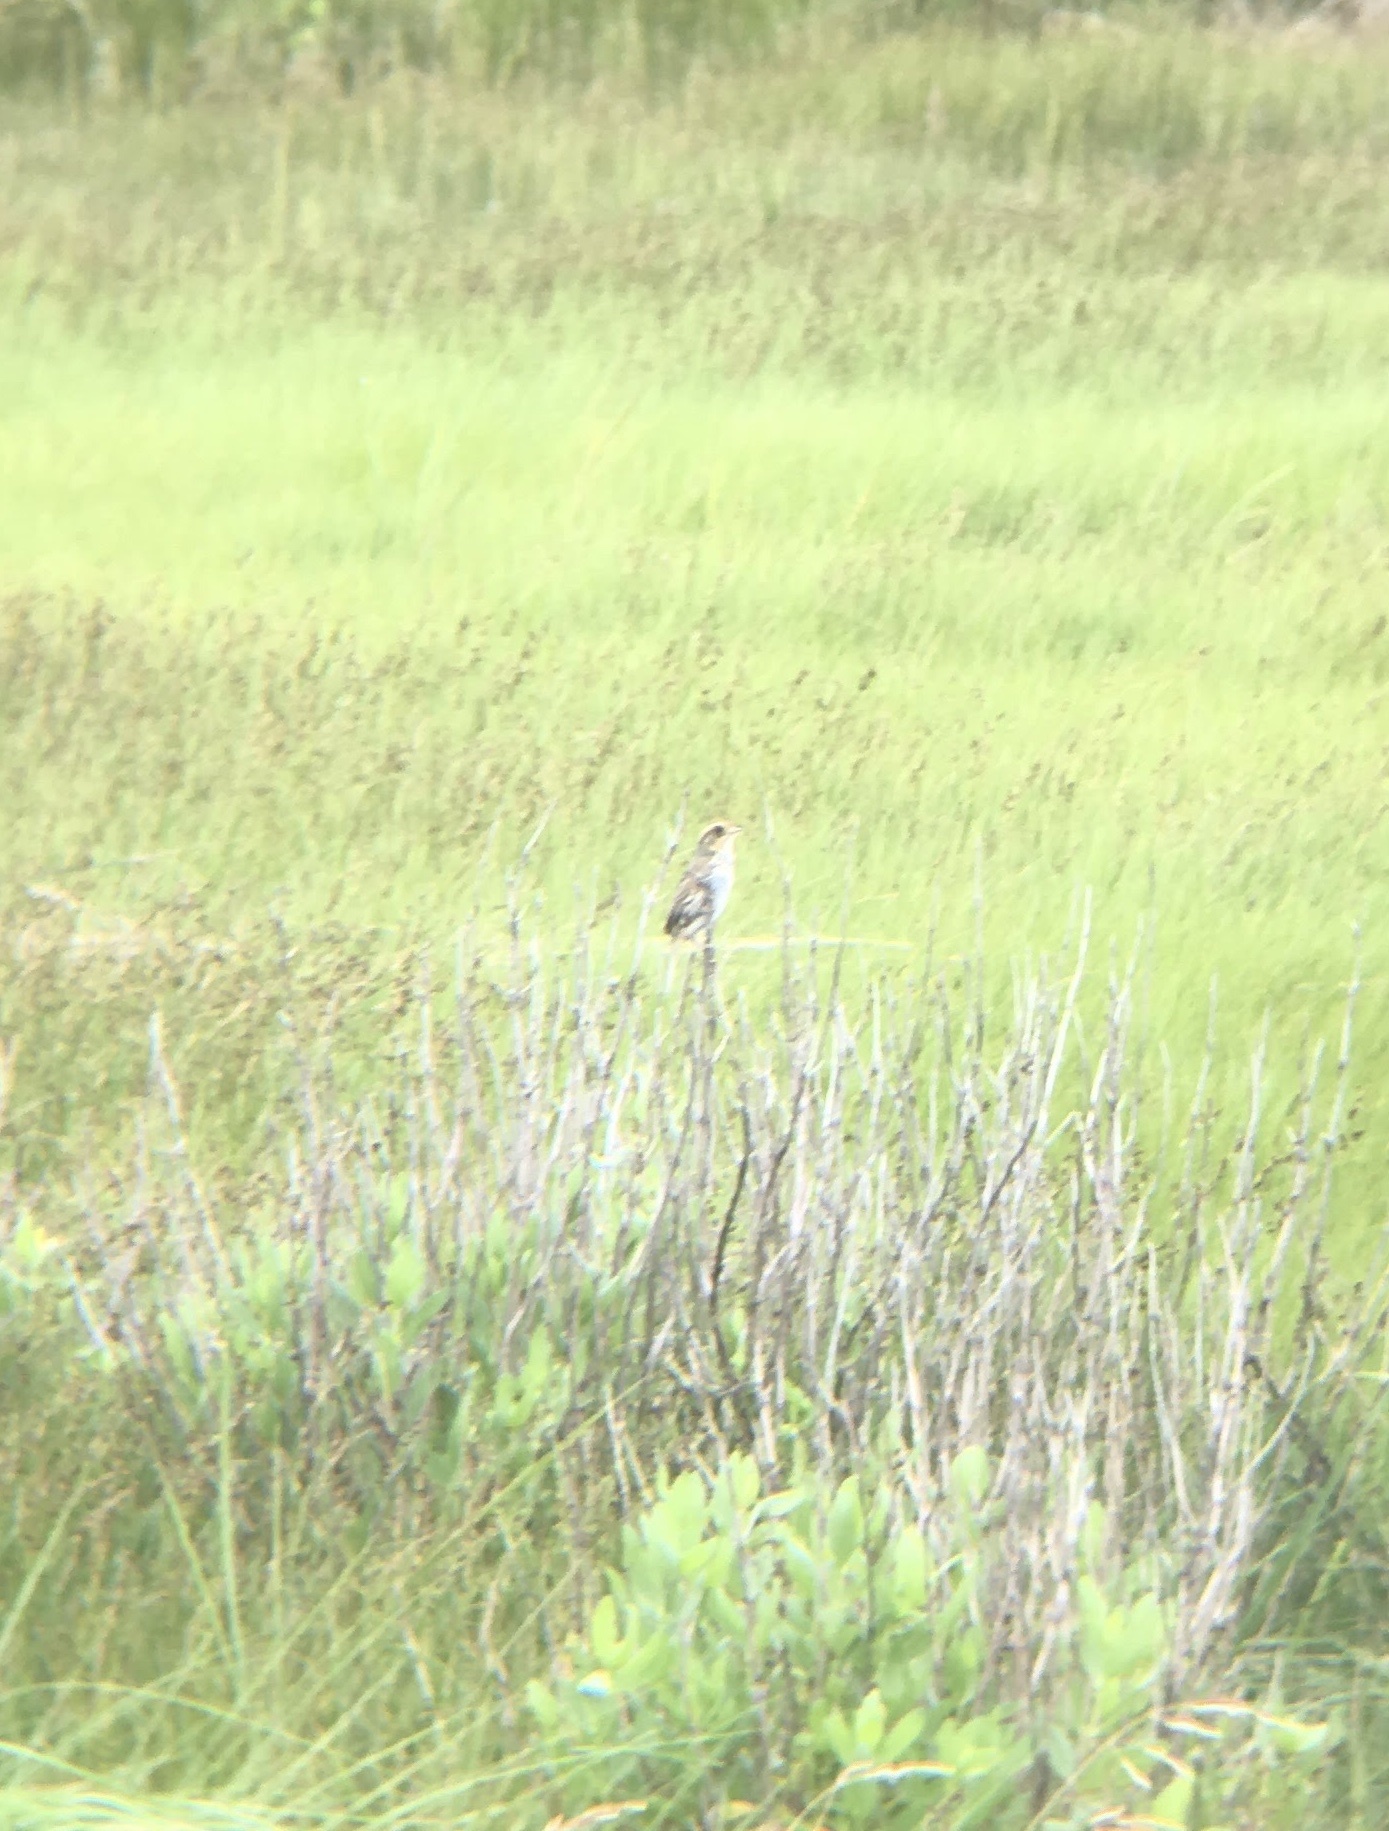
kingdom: Animalia
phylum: Chordata
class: Aves
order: Passeriformes
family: Passerellidae
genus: Ammospiza
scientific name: Ammospiza caudacuta
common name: Saltmarsh sparrow
